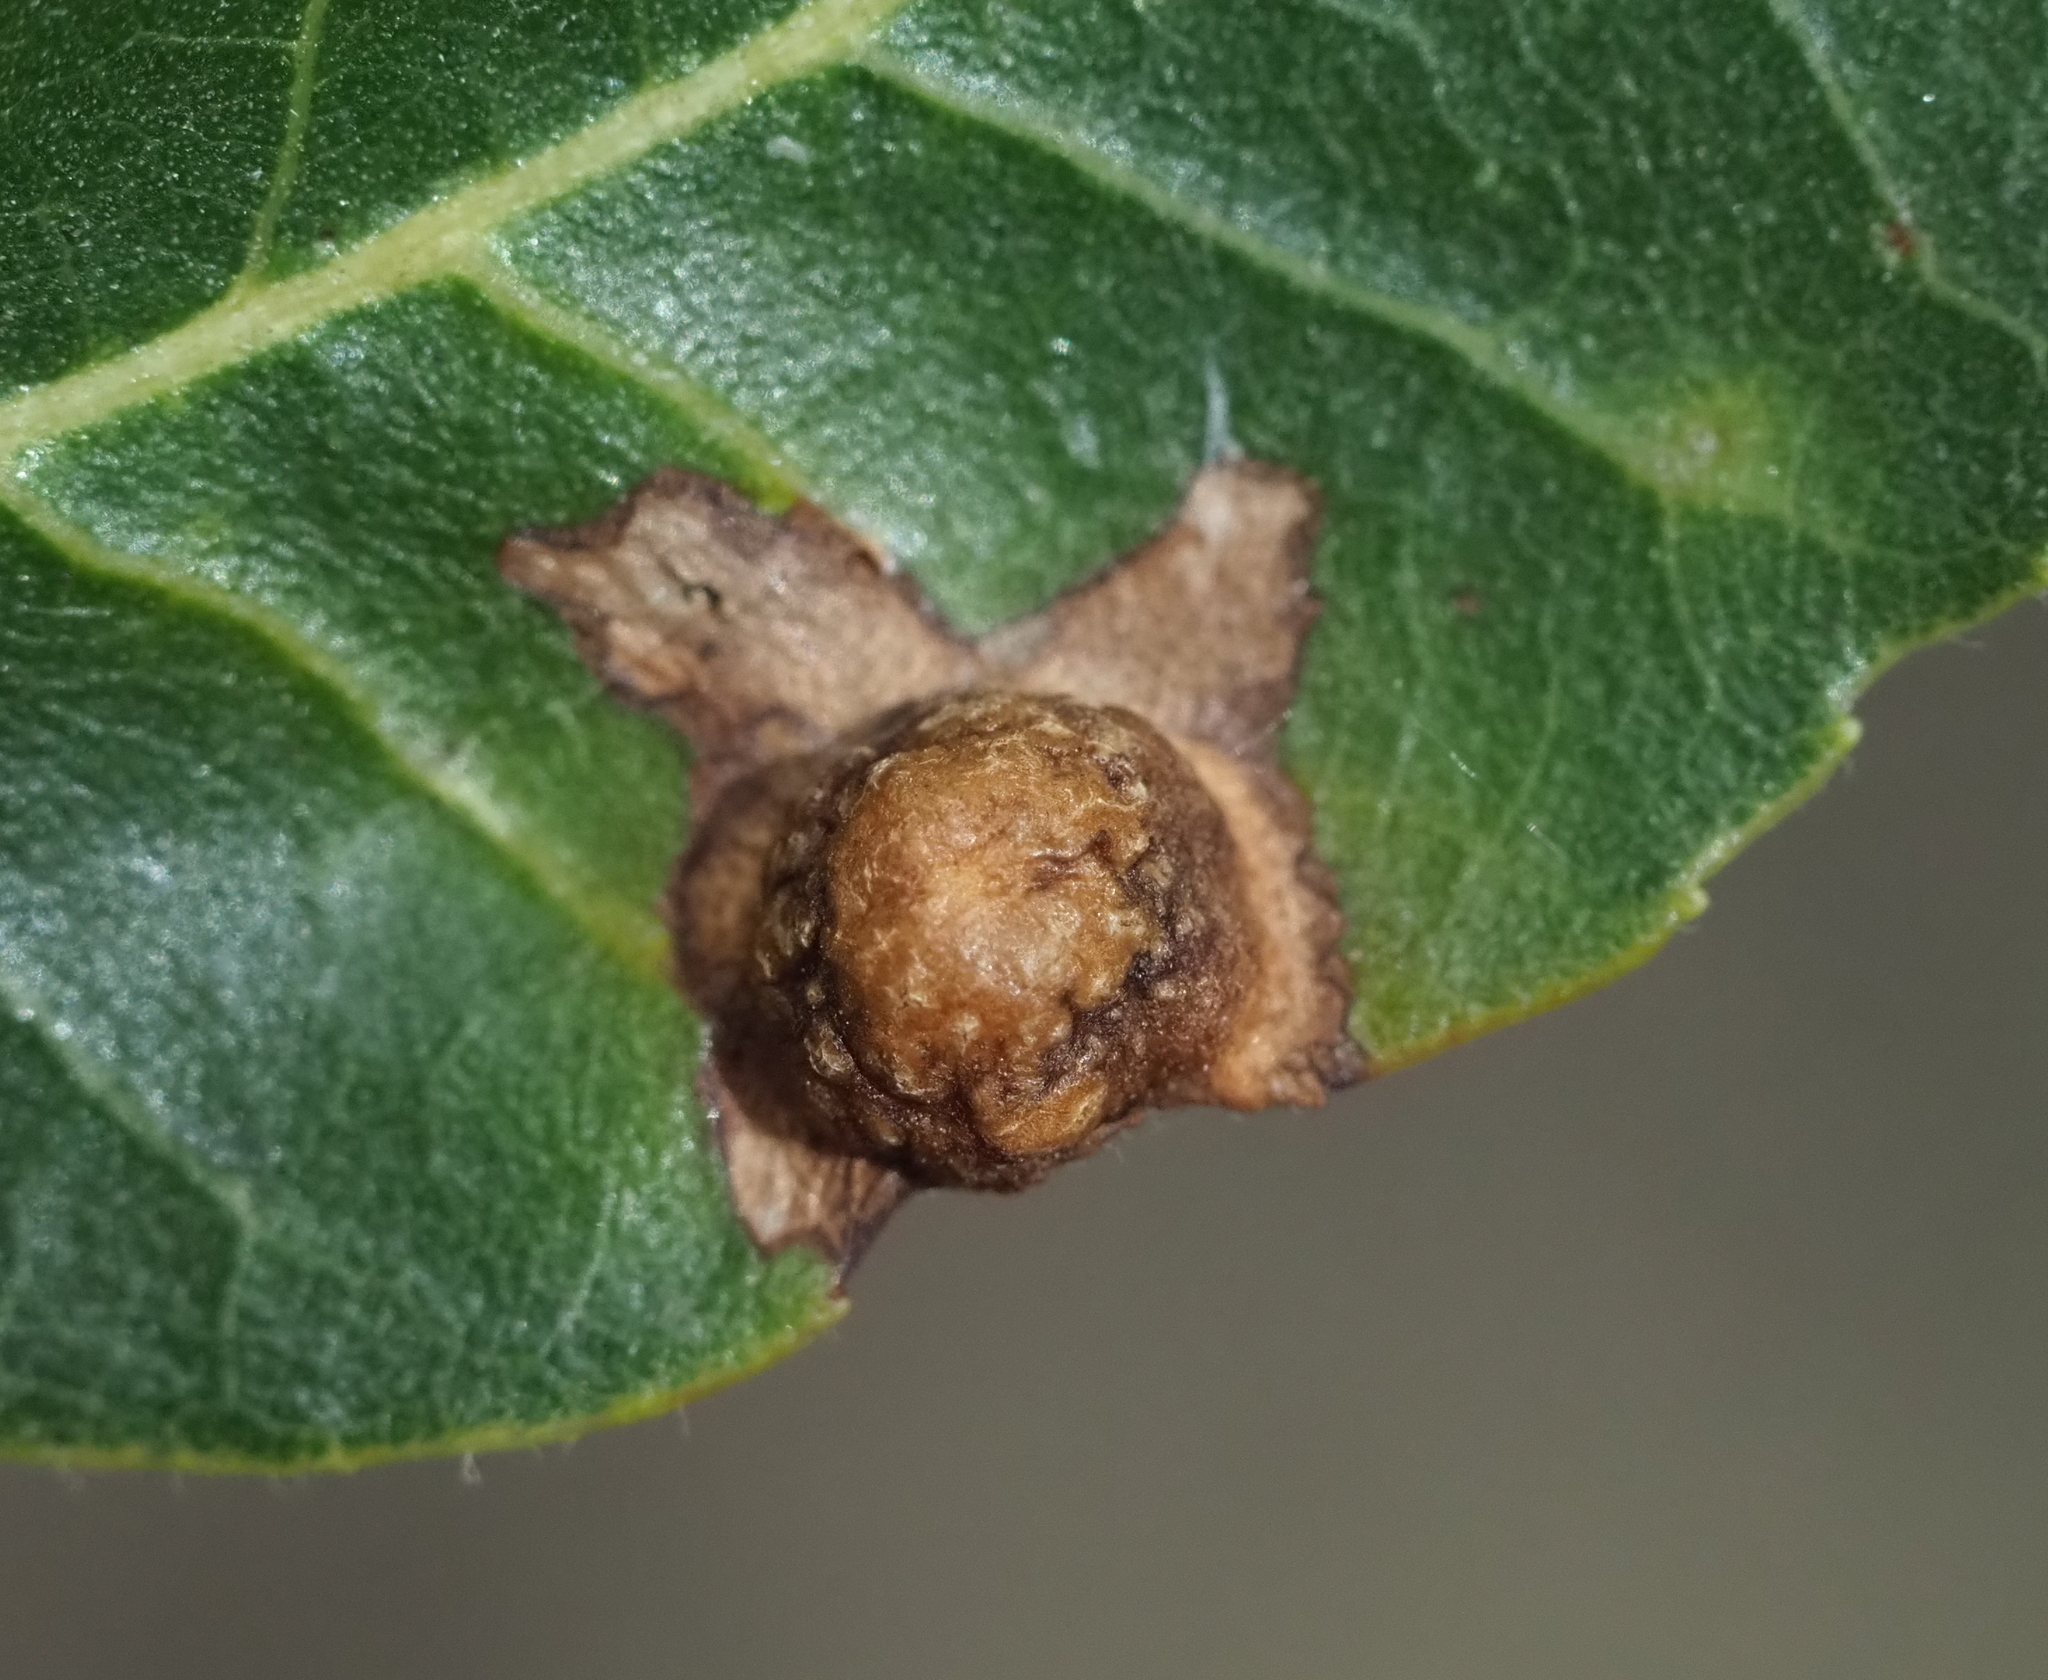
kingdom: Animalia
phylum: Arthropoda
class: Insecta
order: Hemiptera
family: Phylloxeridae
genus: Phylloxera
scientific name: Phylloxera russellae
